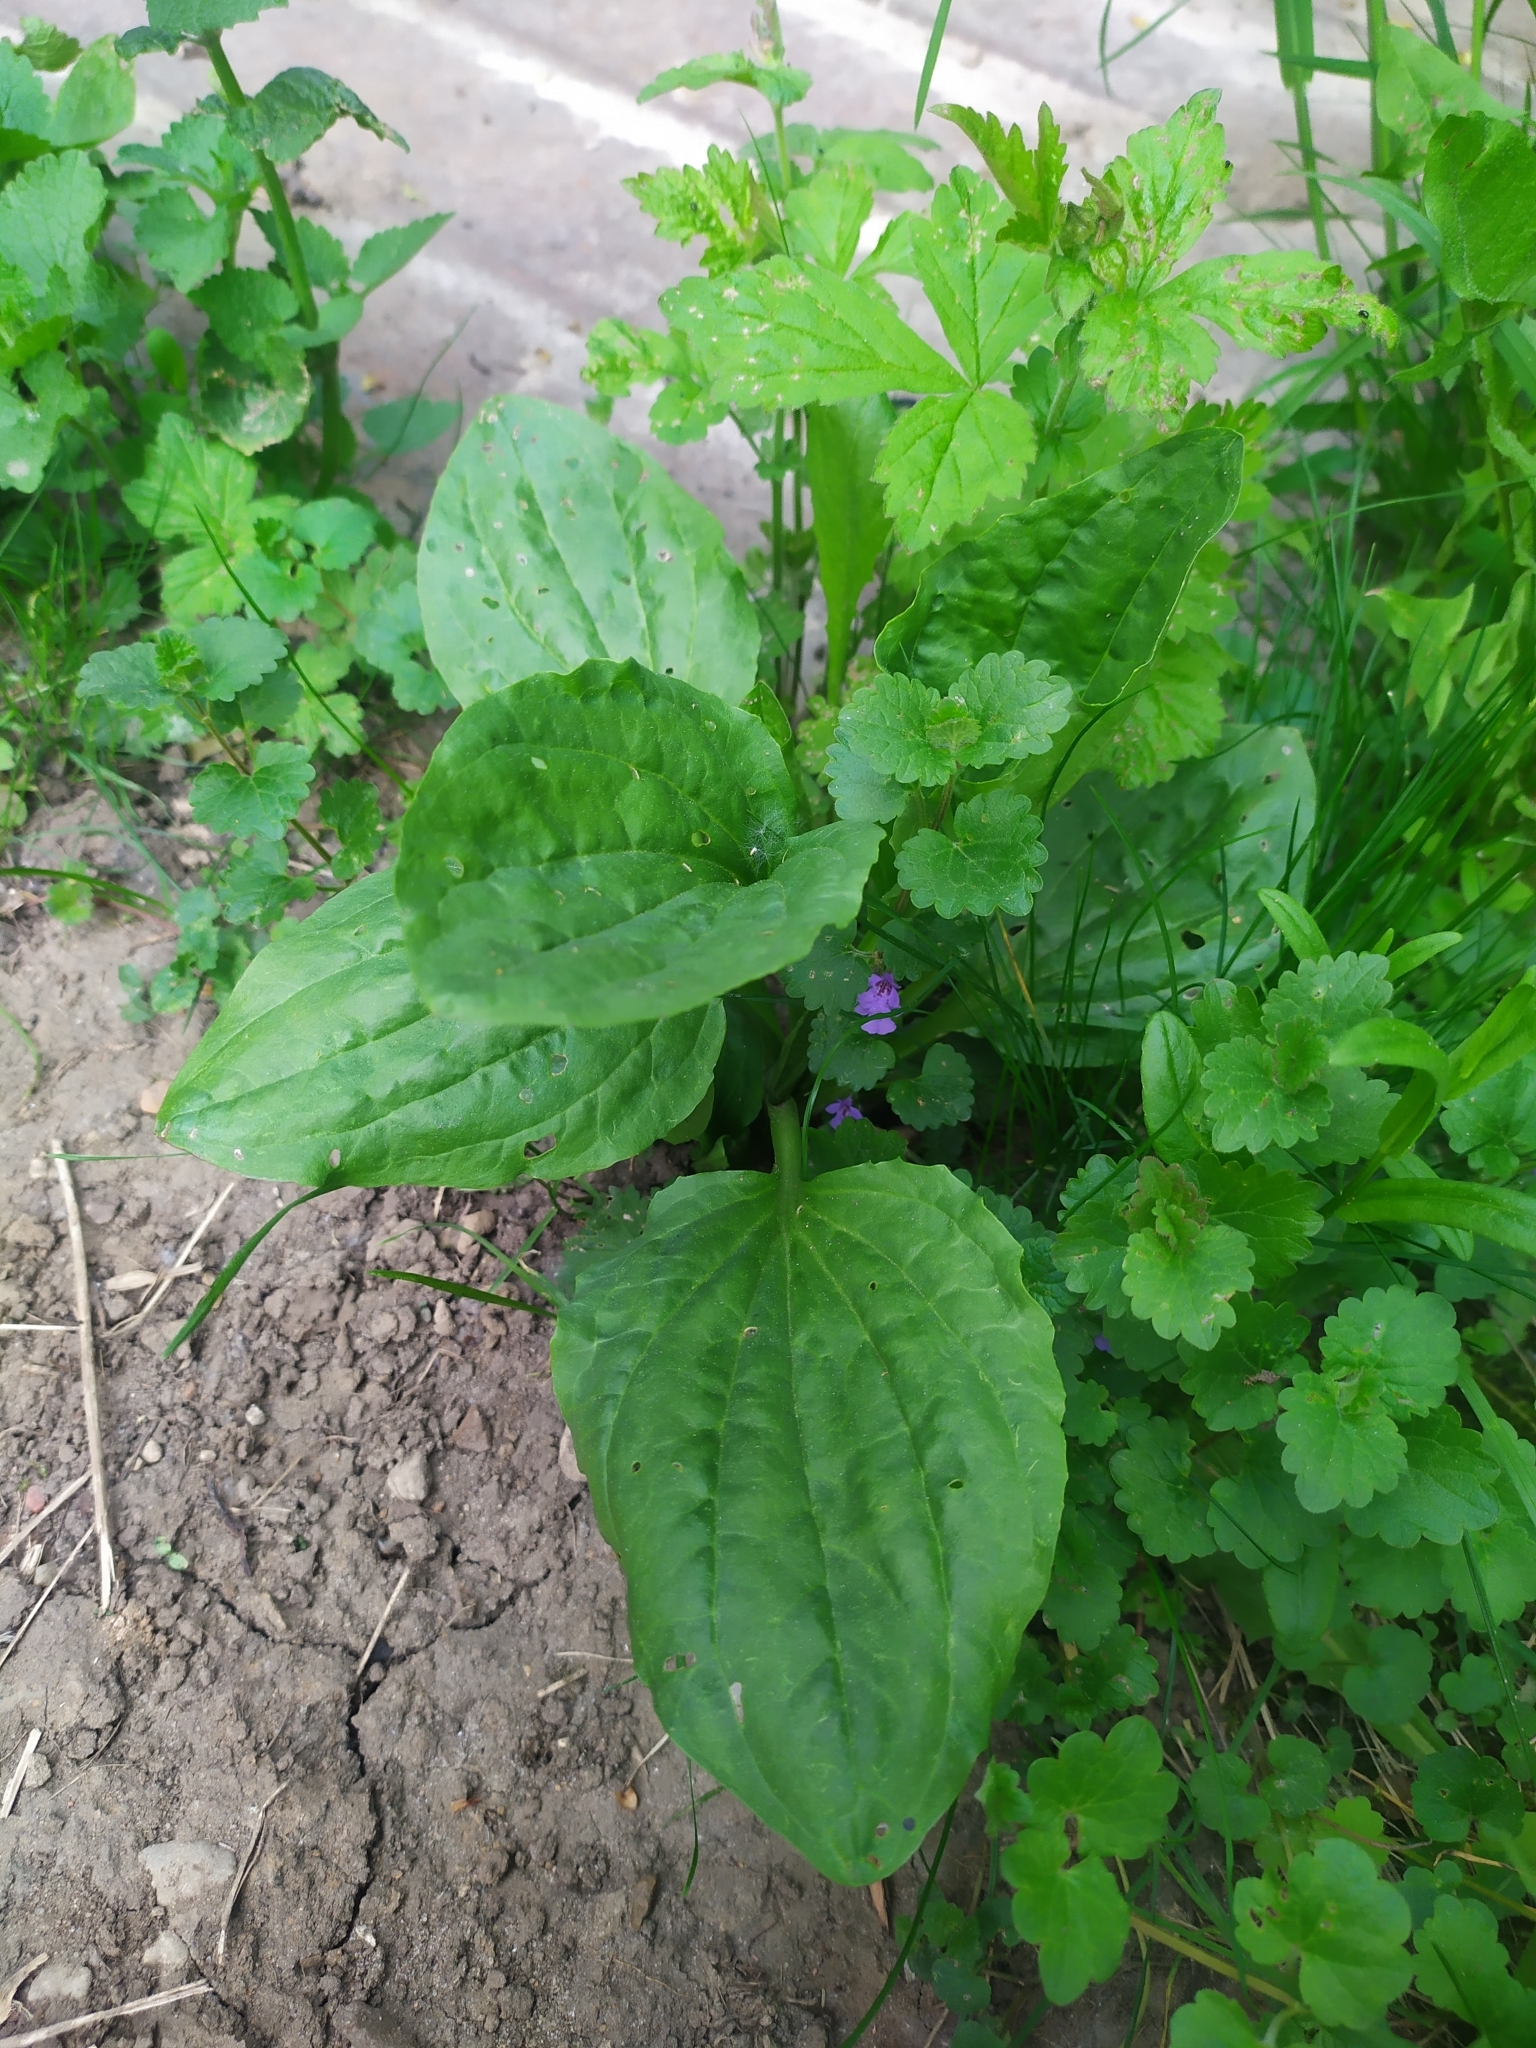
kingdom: Plantae
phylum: Tracheophyta
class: Magnoliopsida
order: Lamiales
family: Plantaginaceae
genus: Plantago
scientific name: Plantago major
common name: Common plantain
